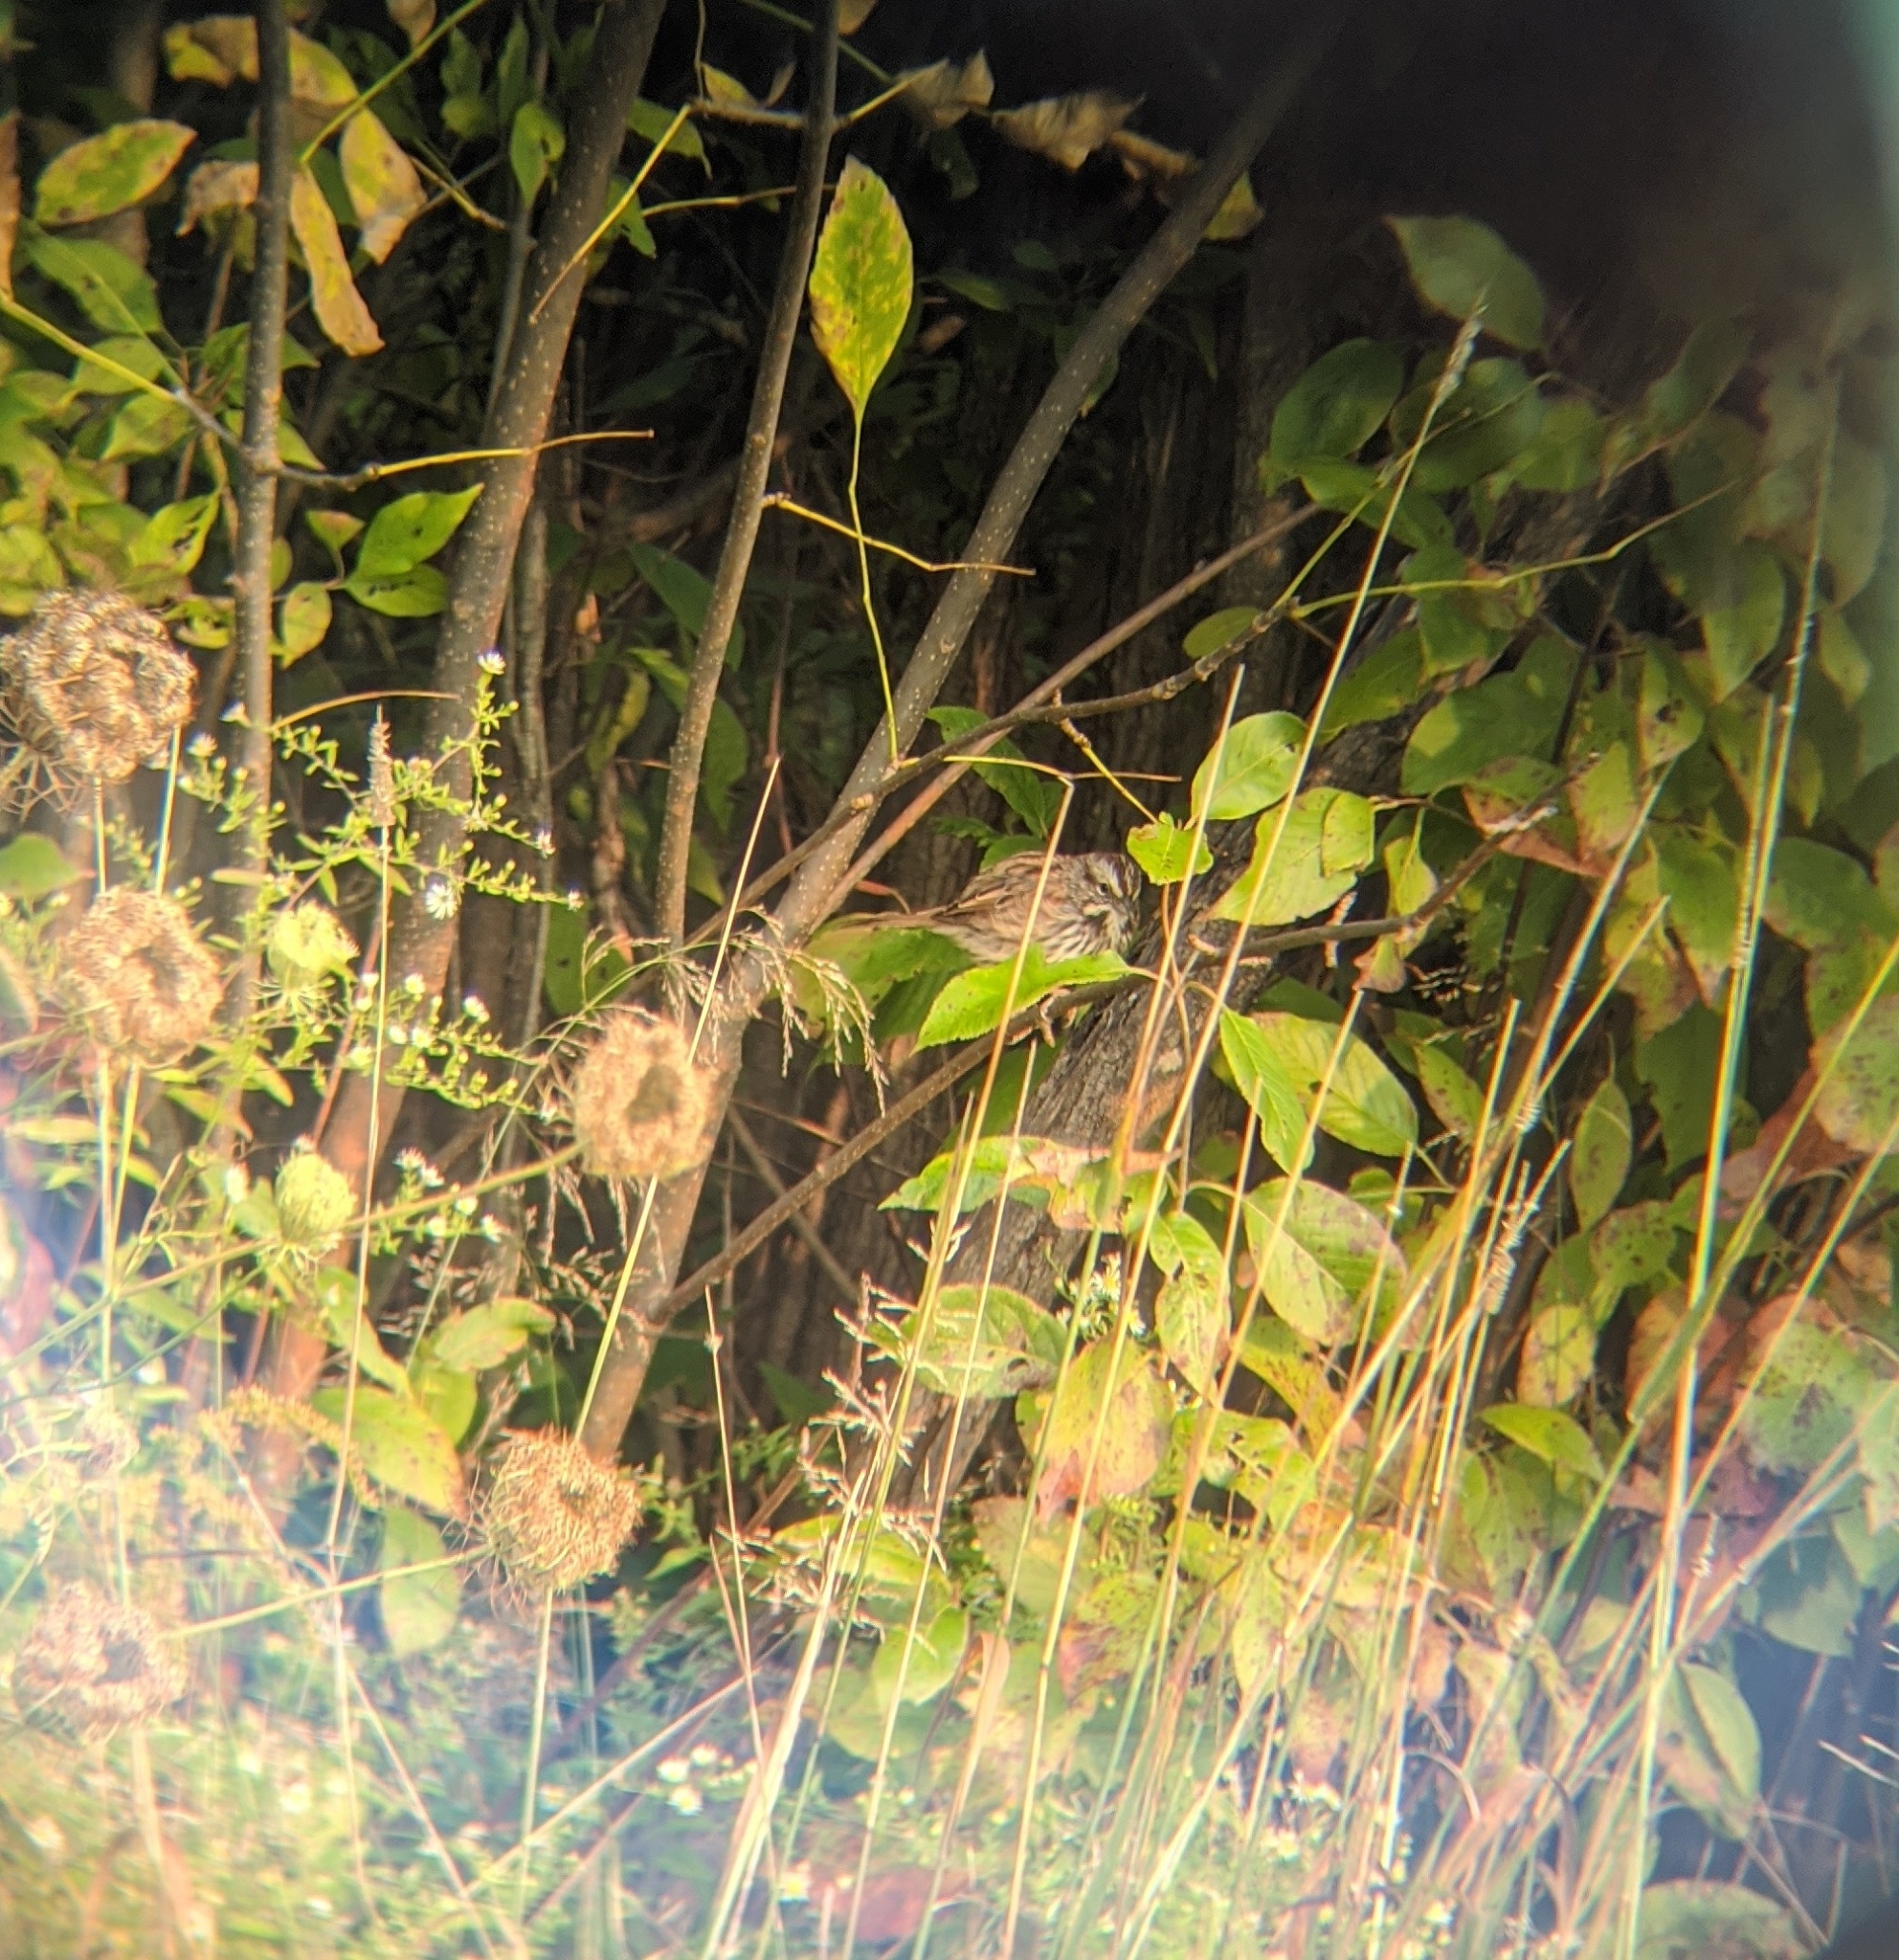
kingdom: Animalia
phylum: Chordata
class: Aves
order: Passeriformes
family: Passerellidae
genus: Melospiza
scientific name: Melospiza melodia
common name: Song sparrow
